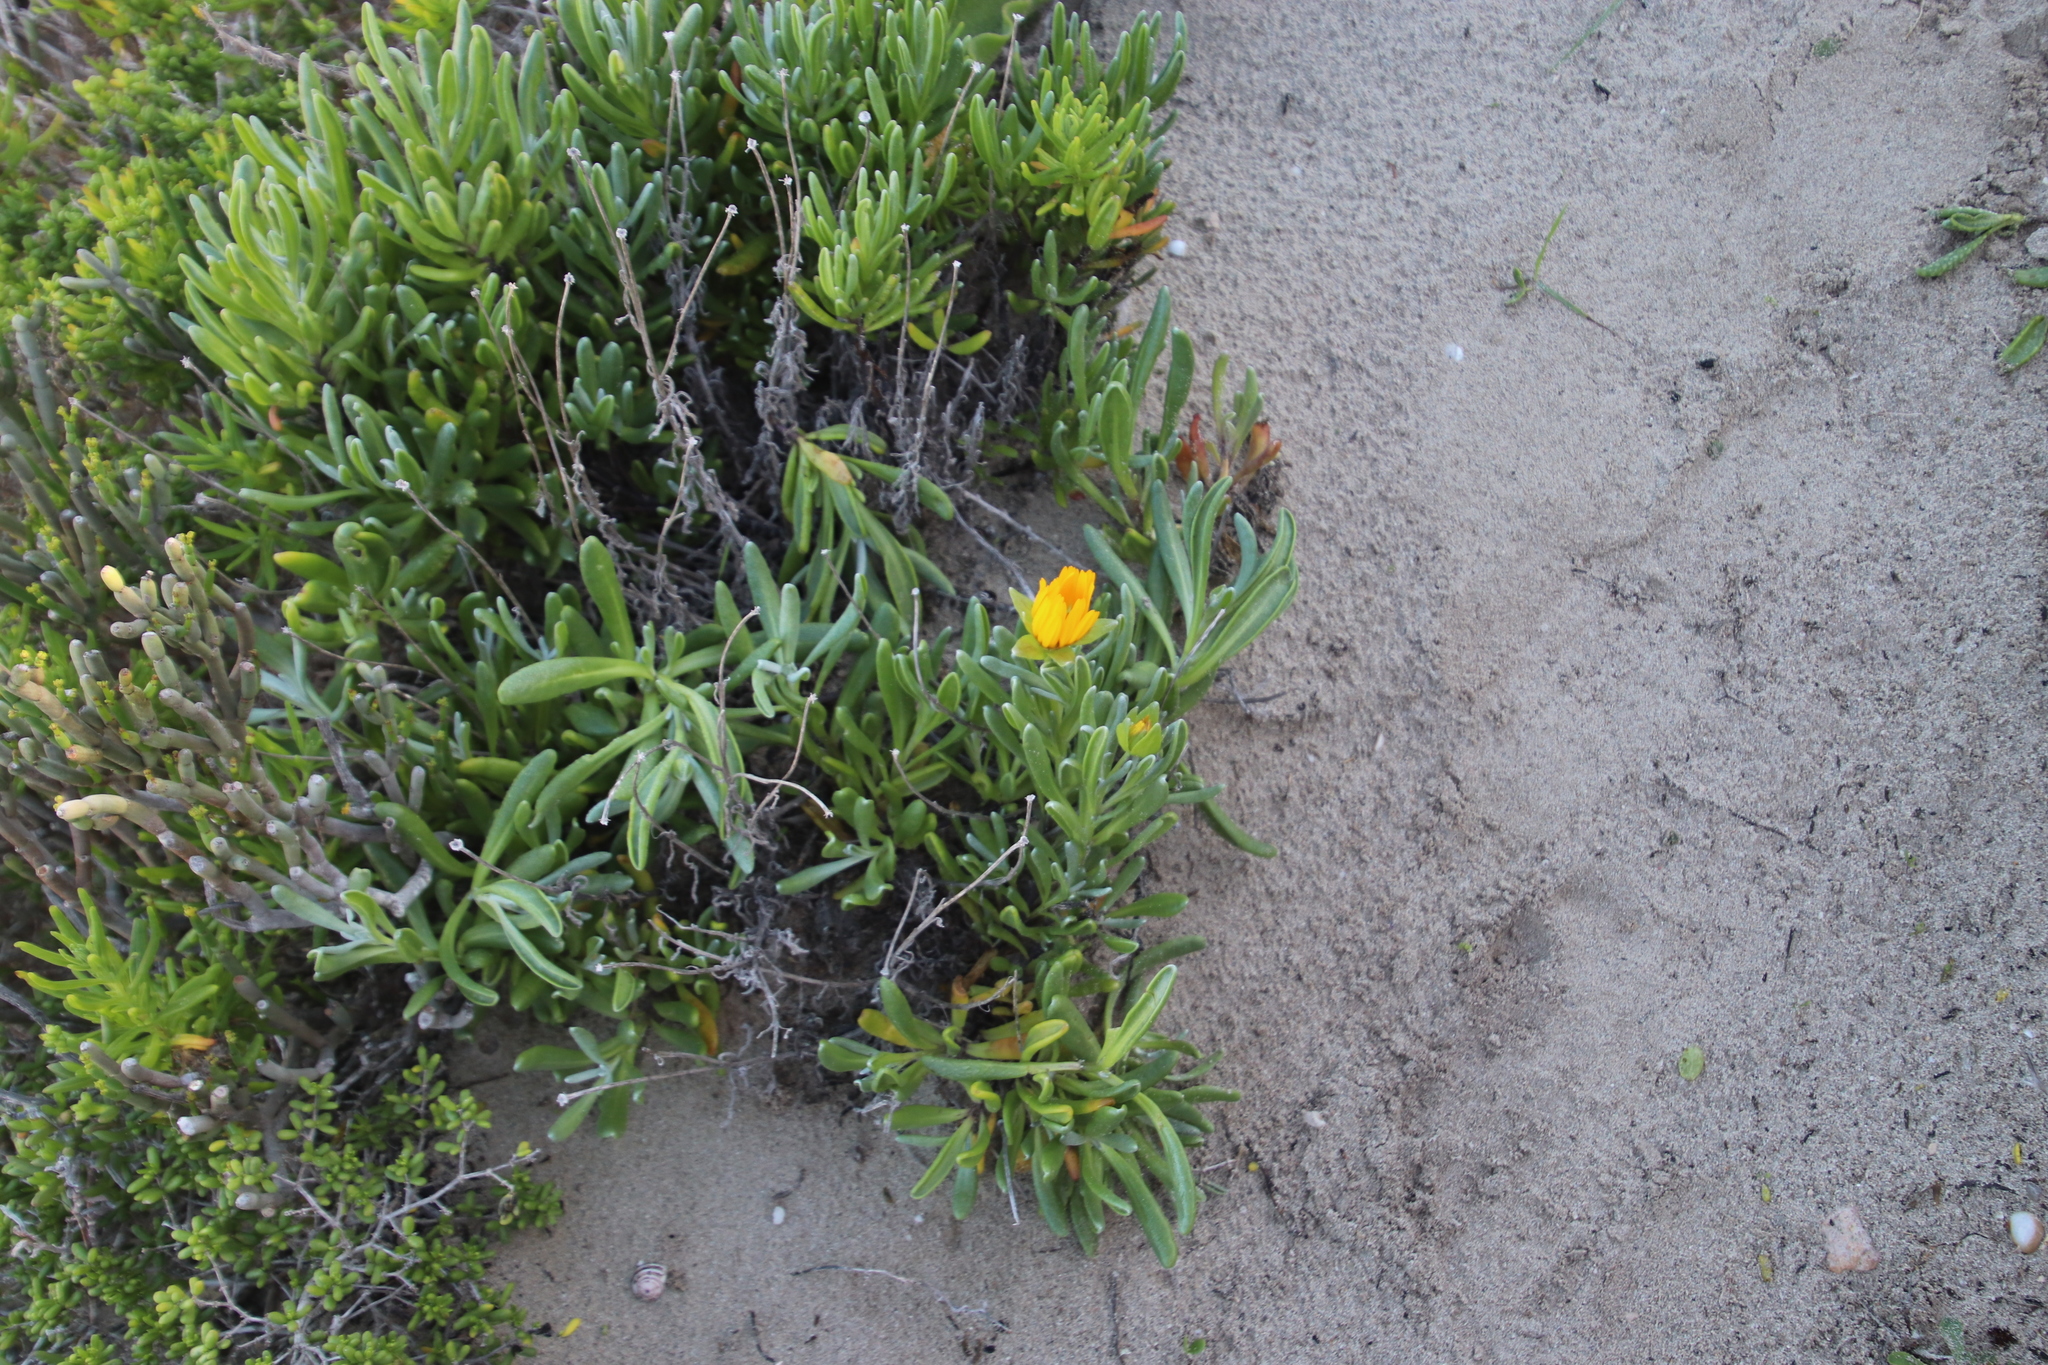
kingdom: Plantae
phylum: Tracheophyta
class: Magnoliopsida
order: Asterales
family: Asteraceae
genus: Didelta
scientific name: Didelta carnosa
